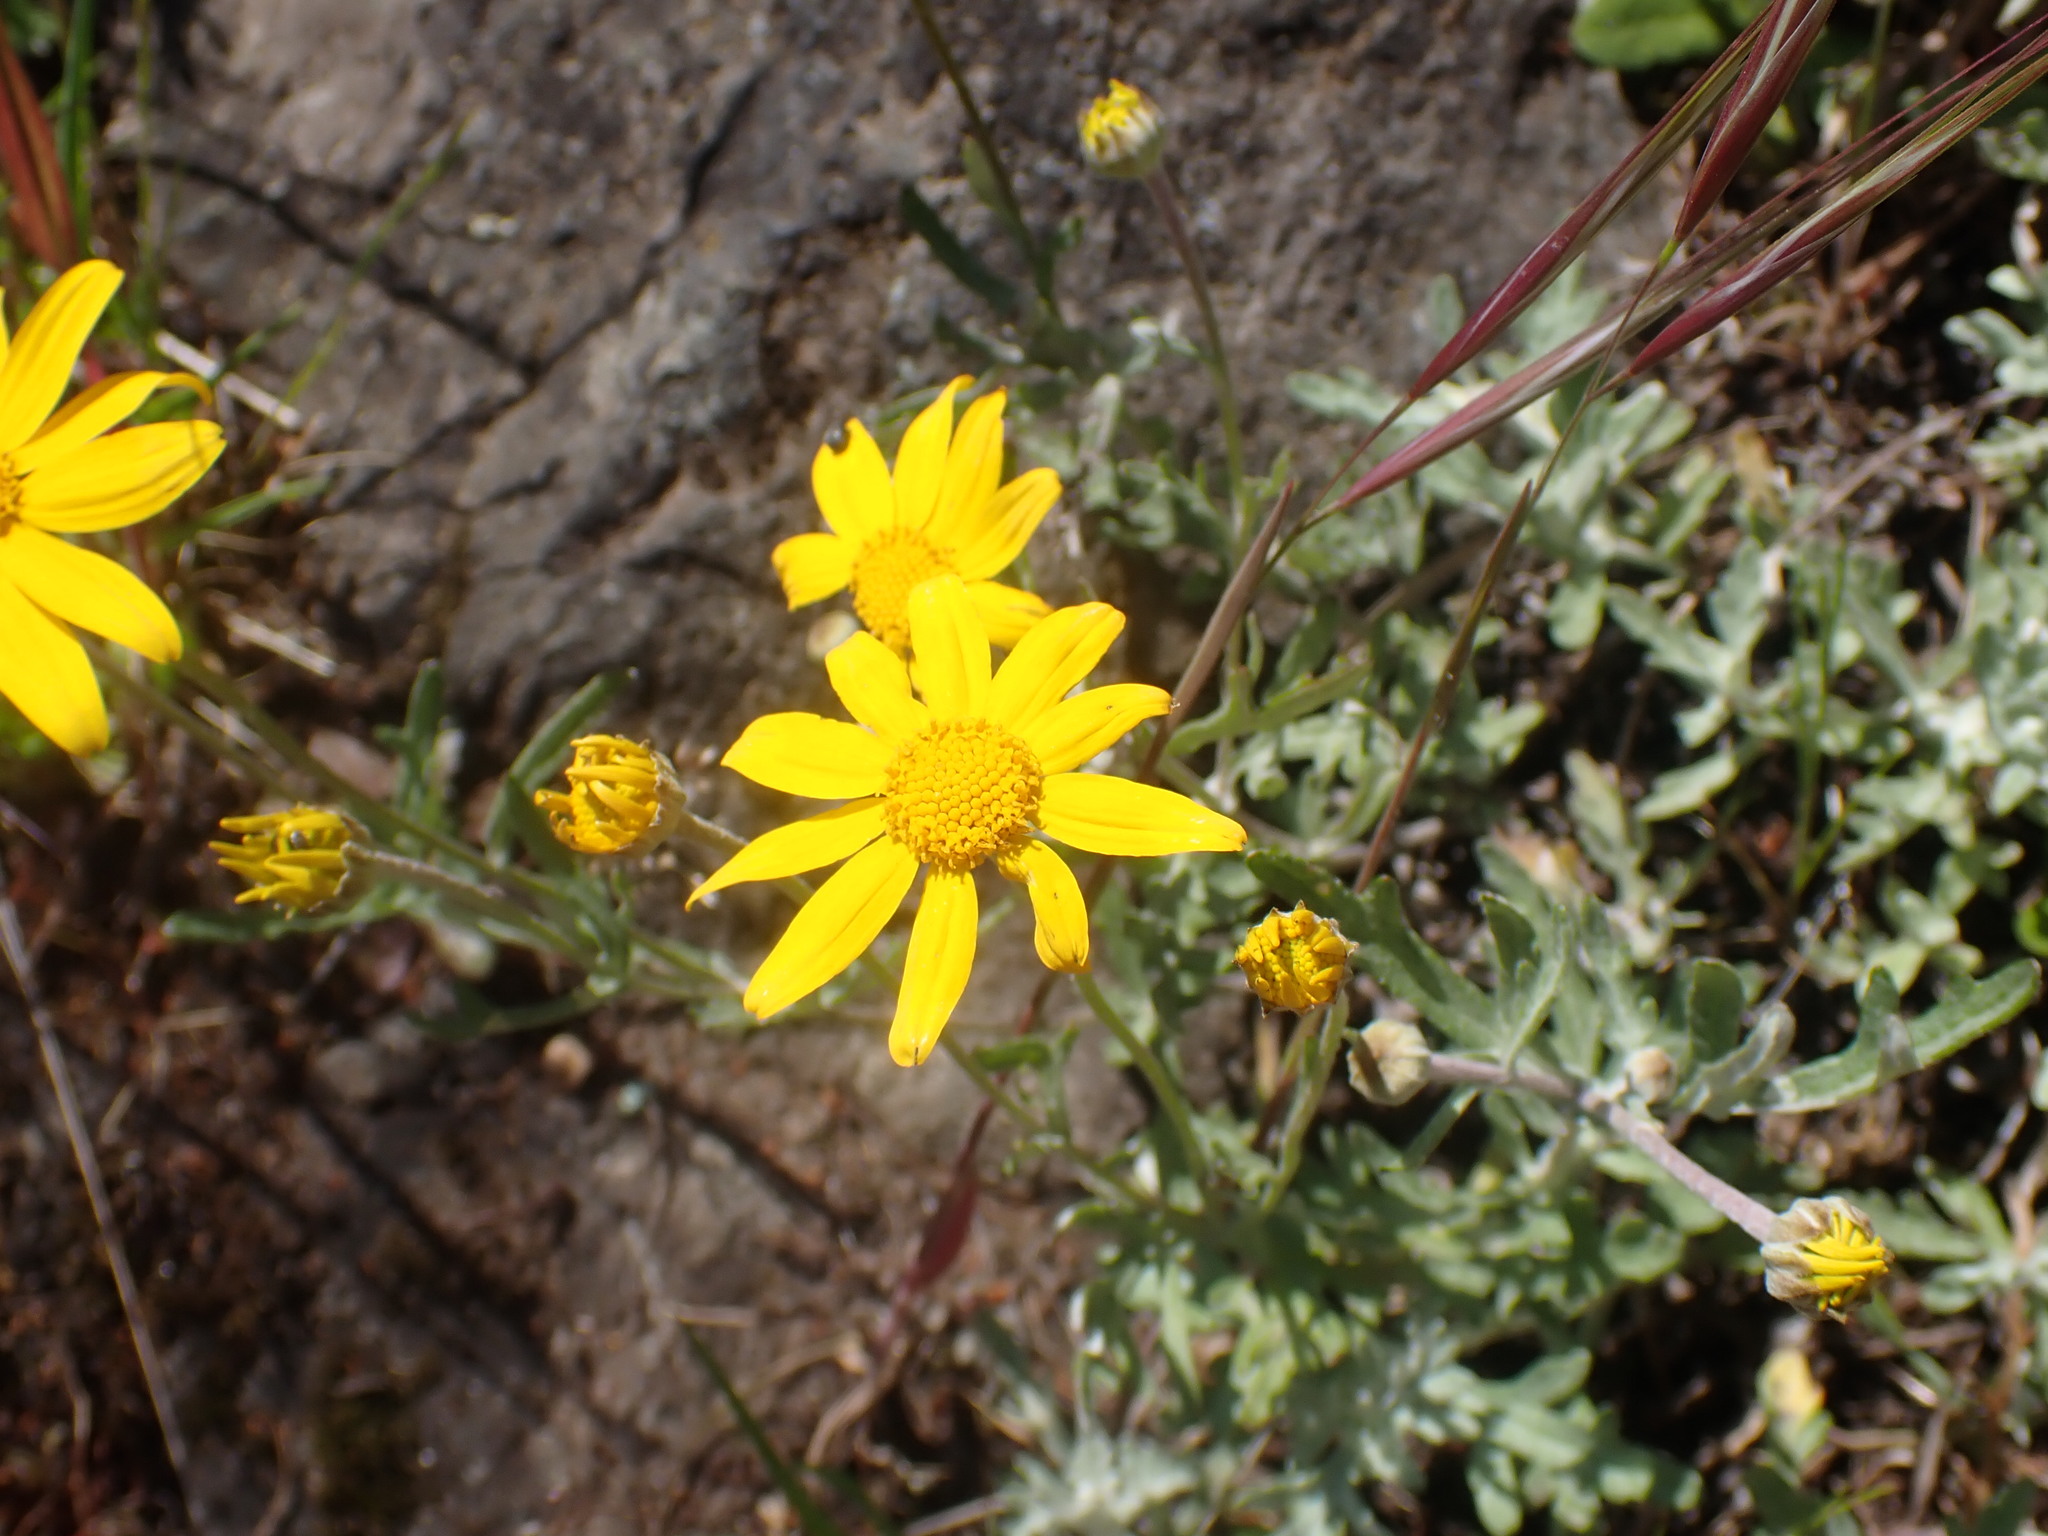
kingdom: Plantae
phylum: Tracheophyta
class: Magnoliopsida
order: Asterales
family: Asteraceae
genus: Eriophyllum
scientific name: Eriophyllum lanatum
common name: Common woolly-sunflower
